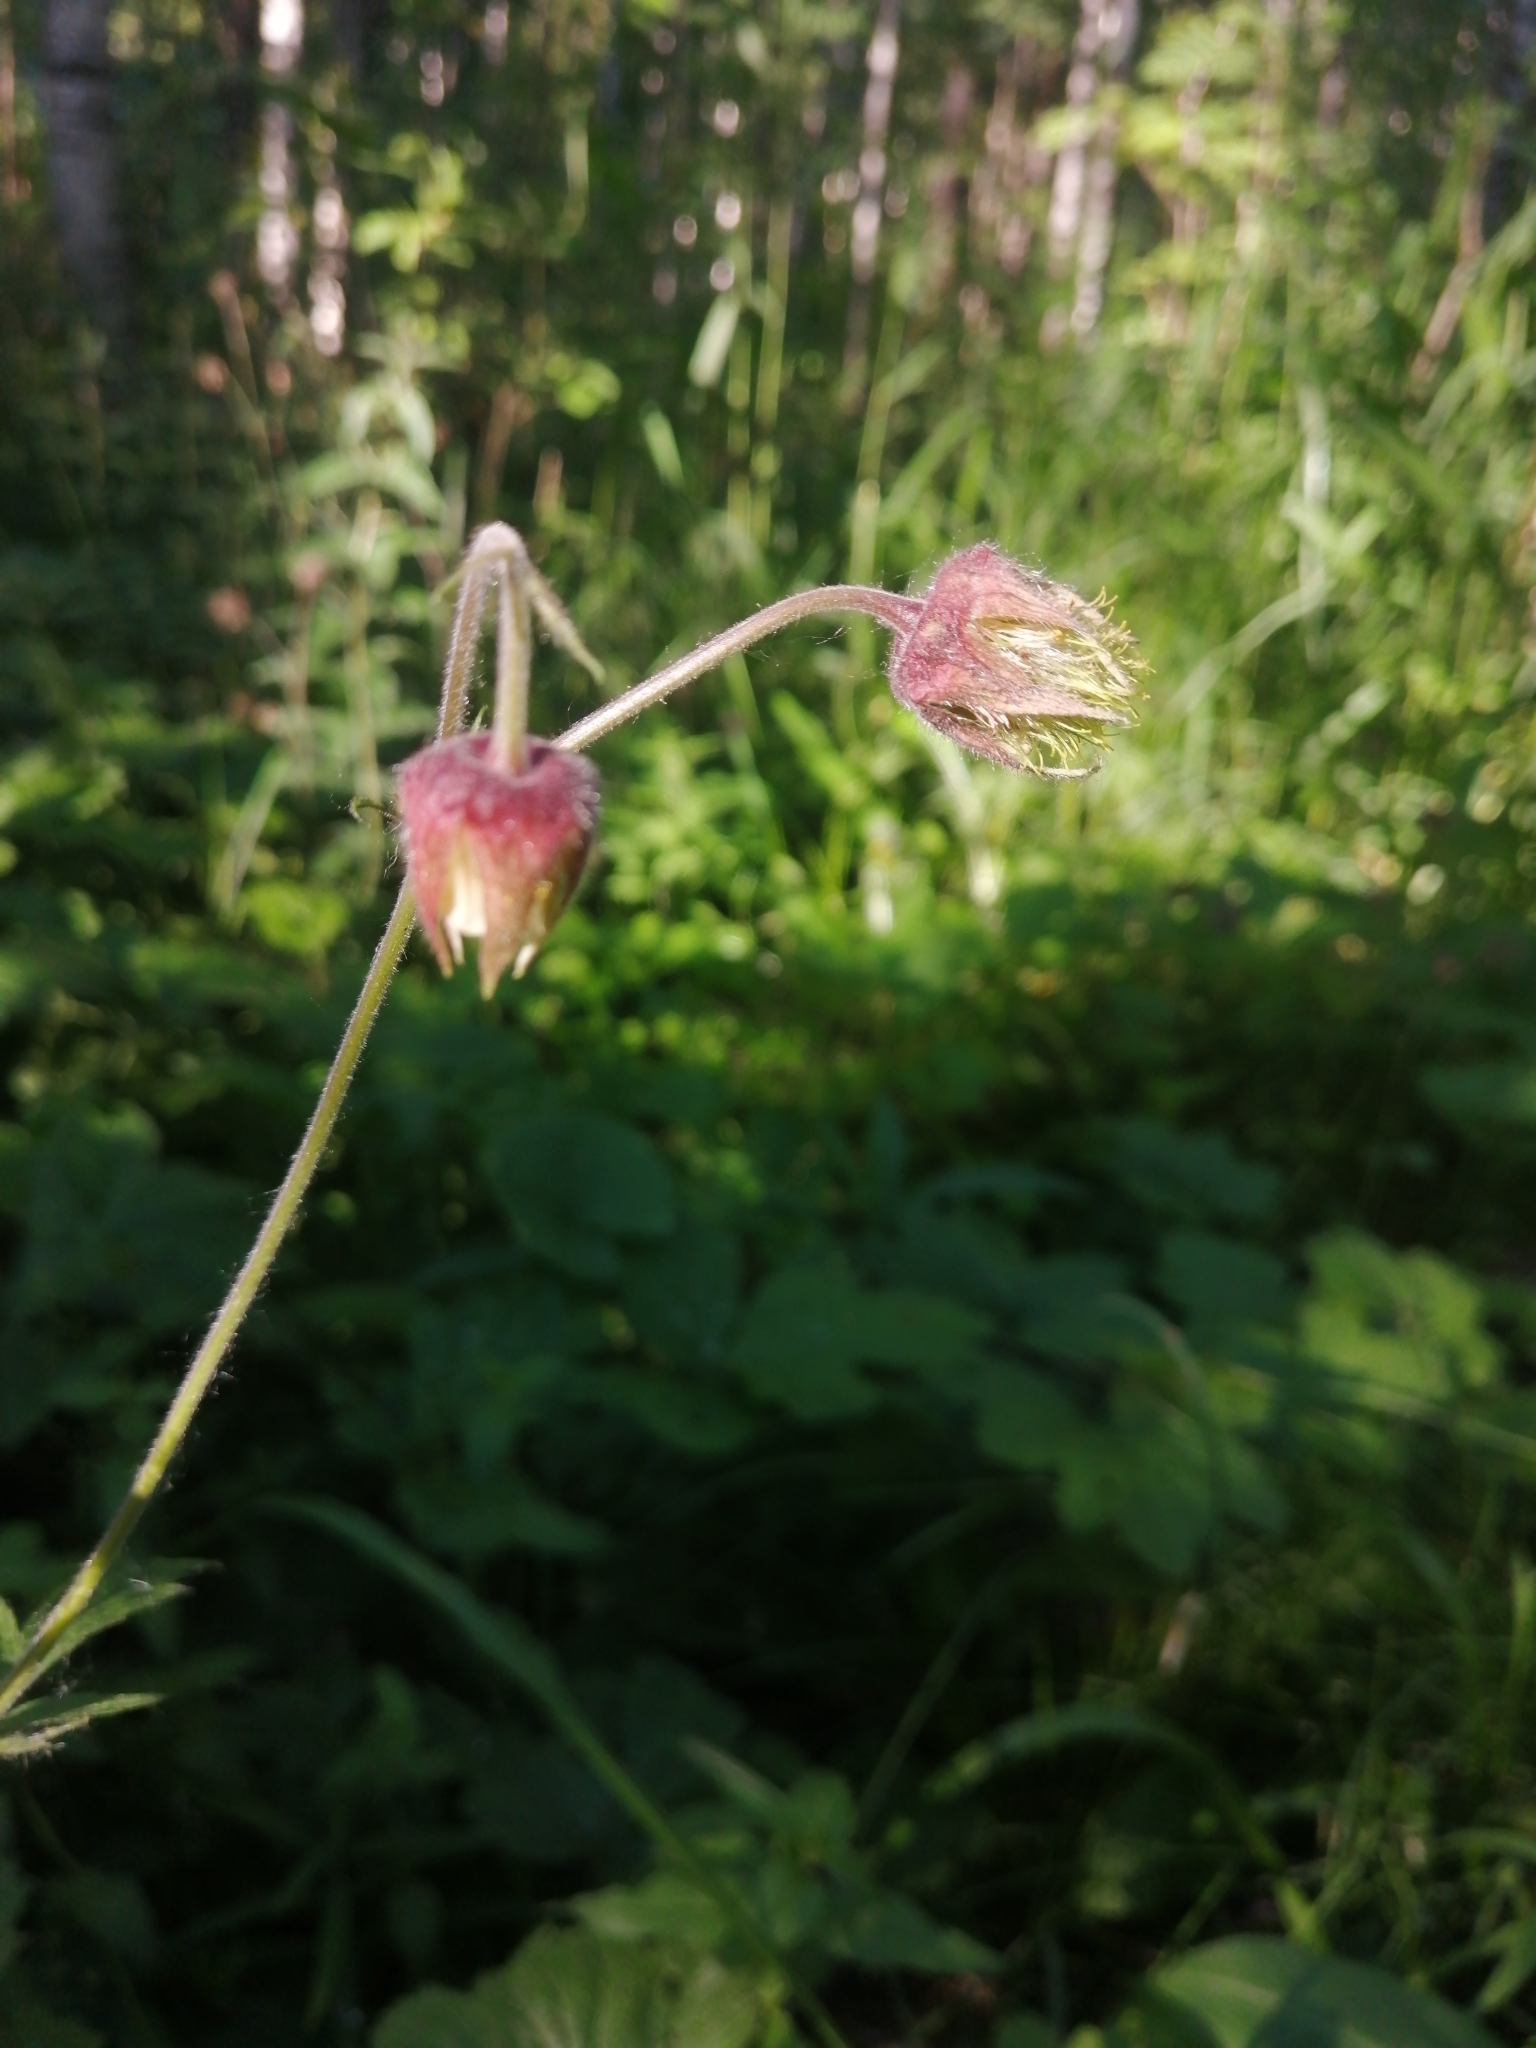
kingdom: Plantae
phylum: Tracheophyta
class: Magnoliopsida
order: Rosales
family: Rosaceae
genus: Geum
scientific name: Geum rivale
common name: Water avens
